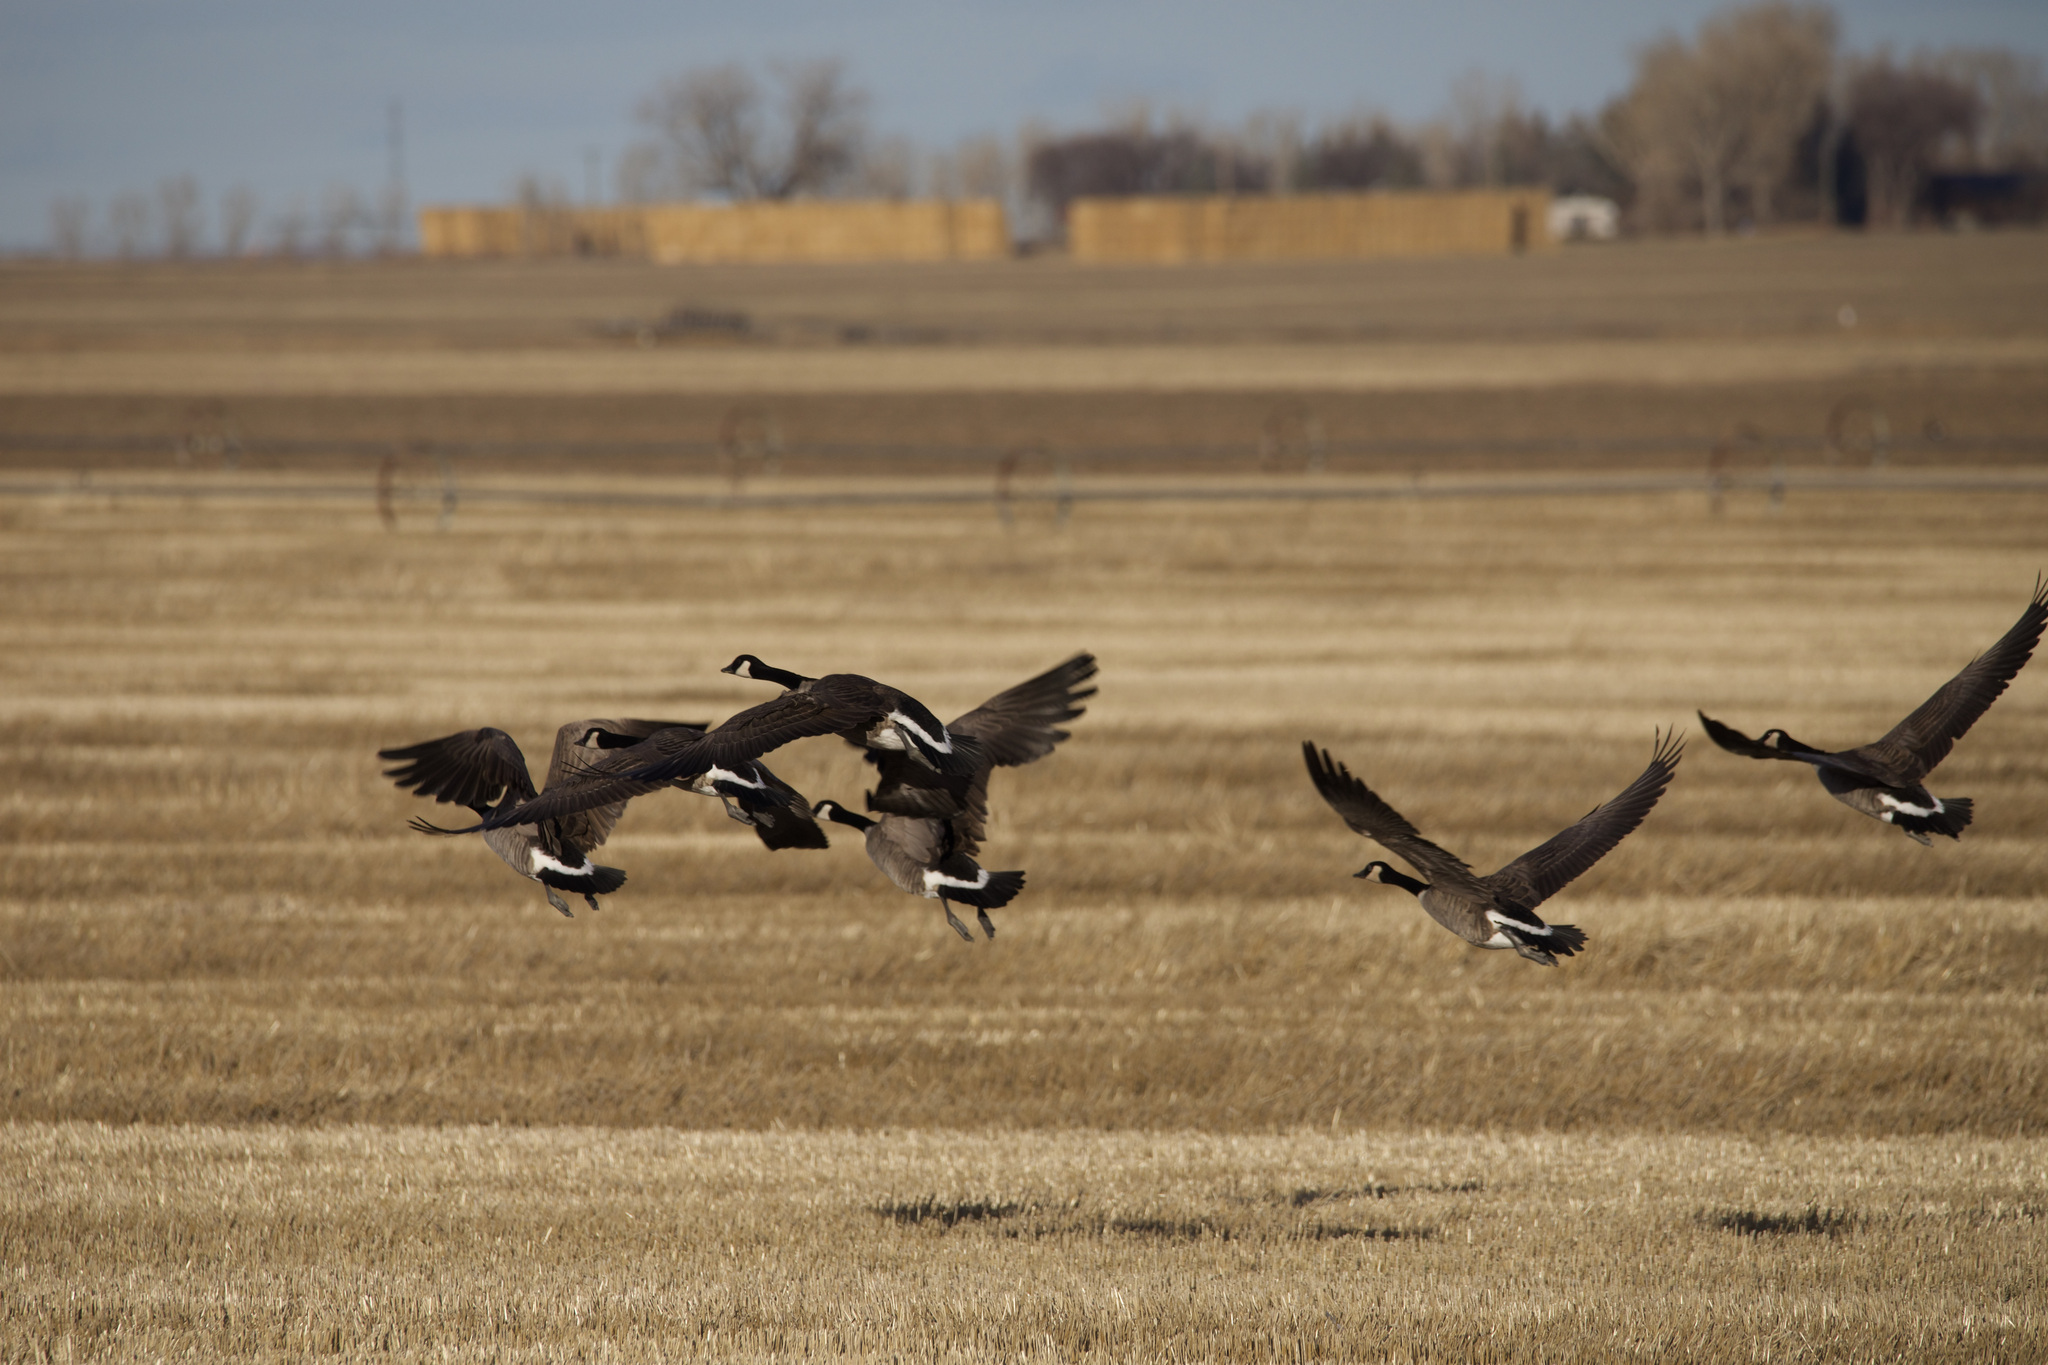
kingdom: Animalia
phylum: Chordata
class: Aves
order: Anseriformes
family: Anatidae
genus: Branta
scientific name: Branta canadensis
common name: Canada goose
